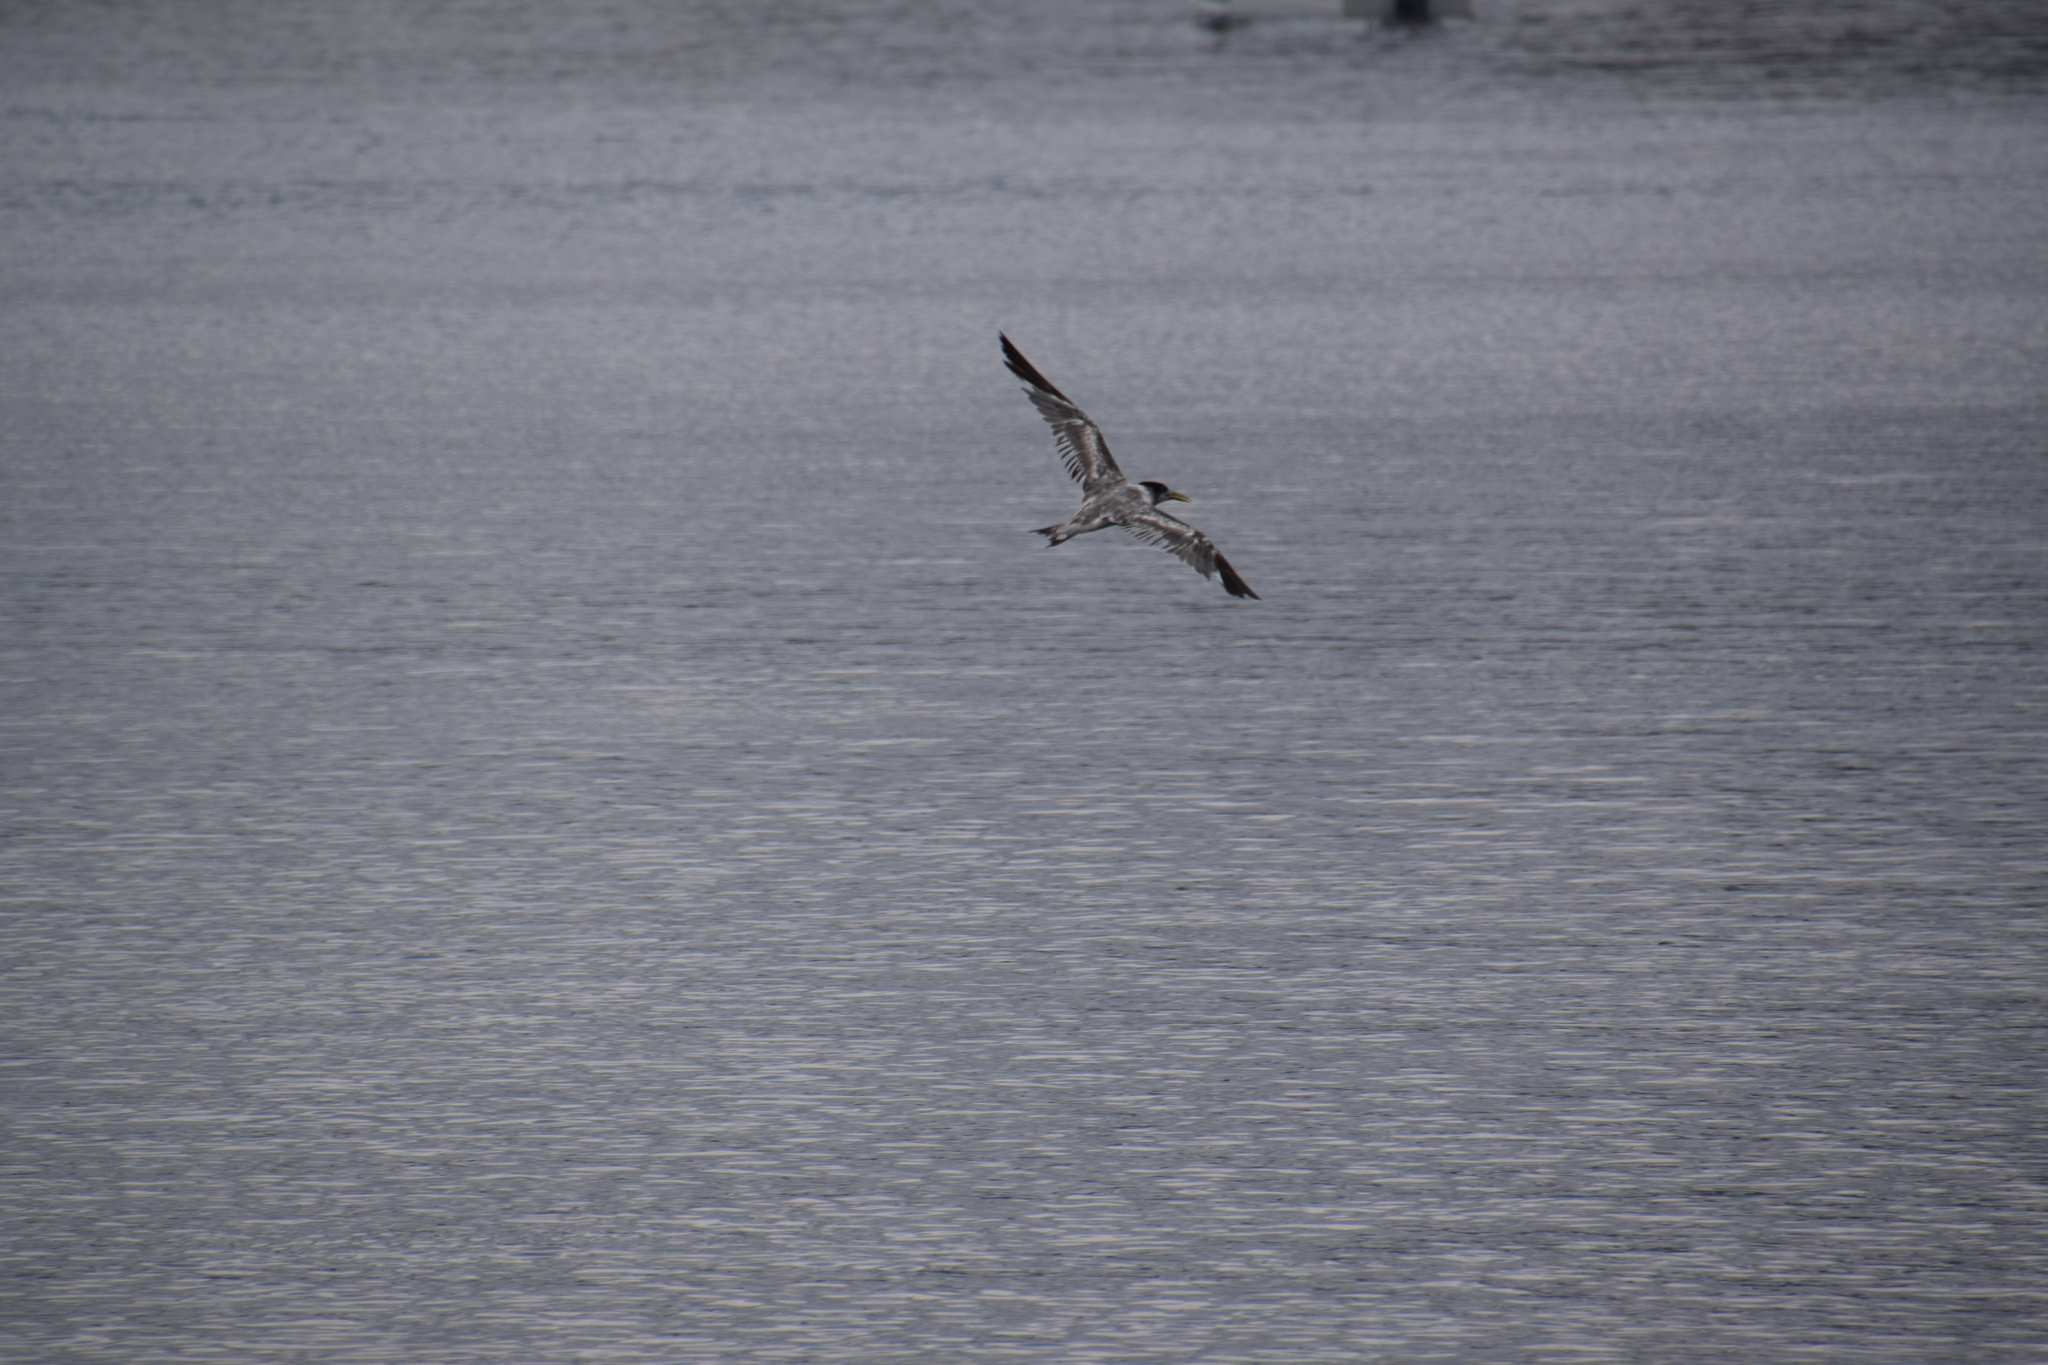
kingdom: Animalia
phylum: Chordata
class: Aves
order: Charadriiformes
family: Laridae
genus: Thalasseus
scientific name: Thalasseus bergii
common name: Greater crested tern
